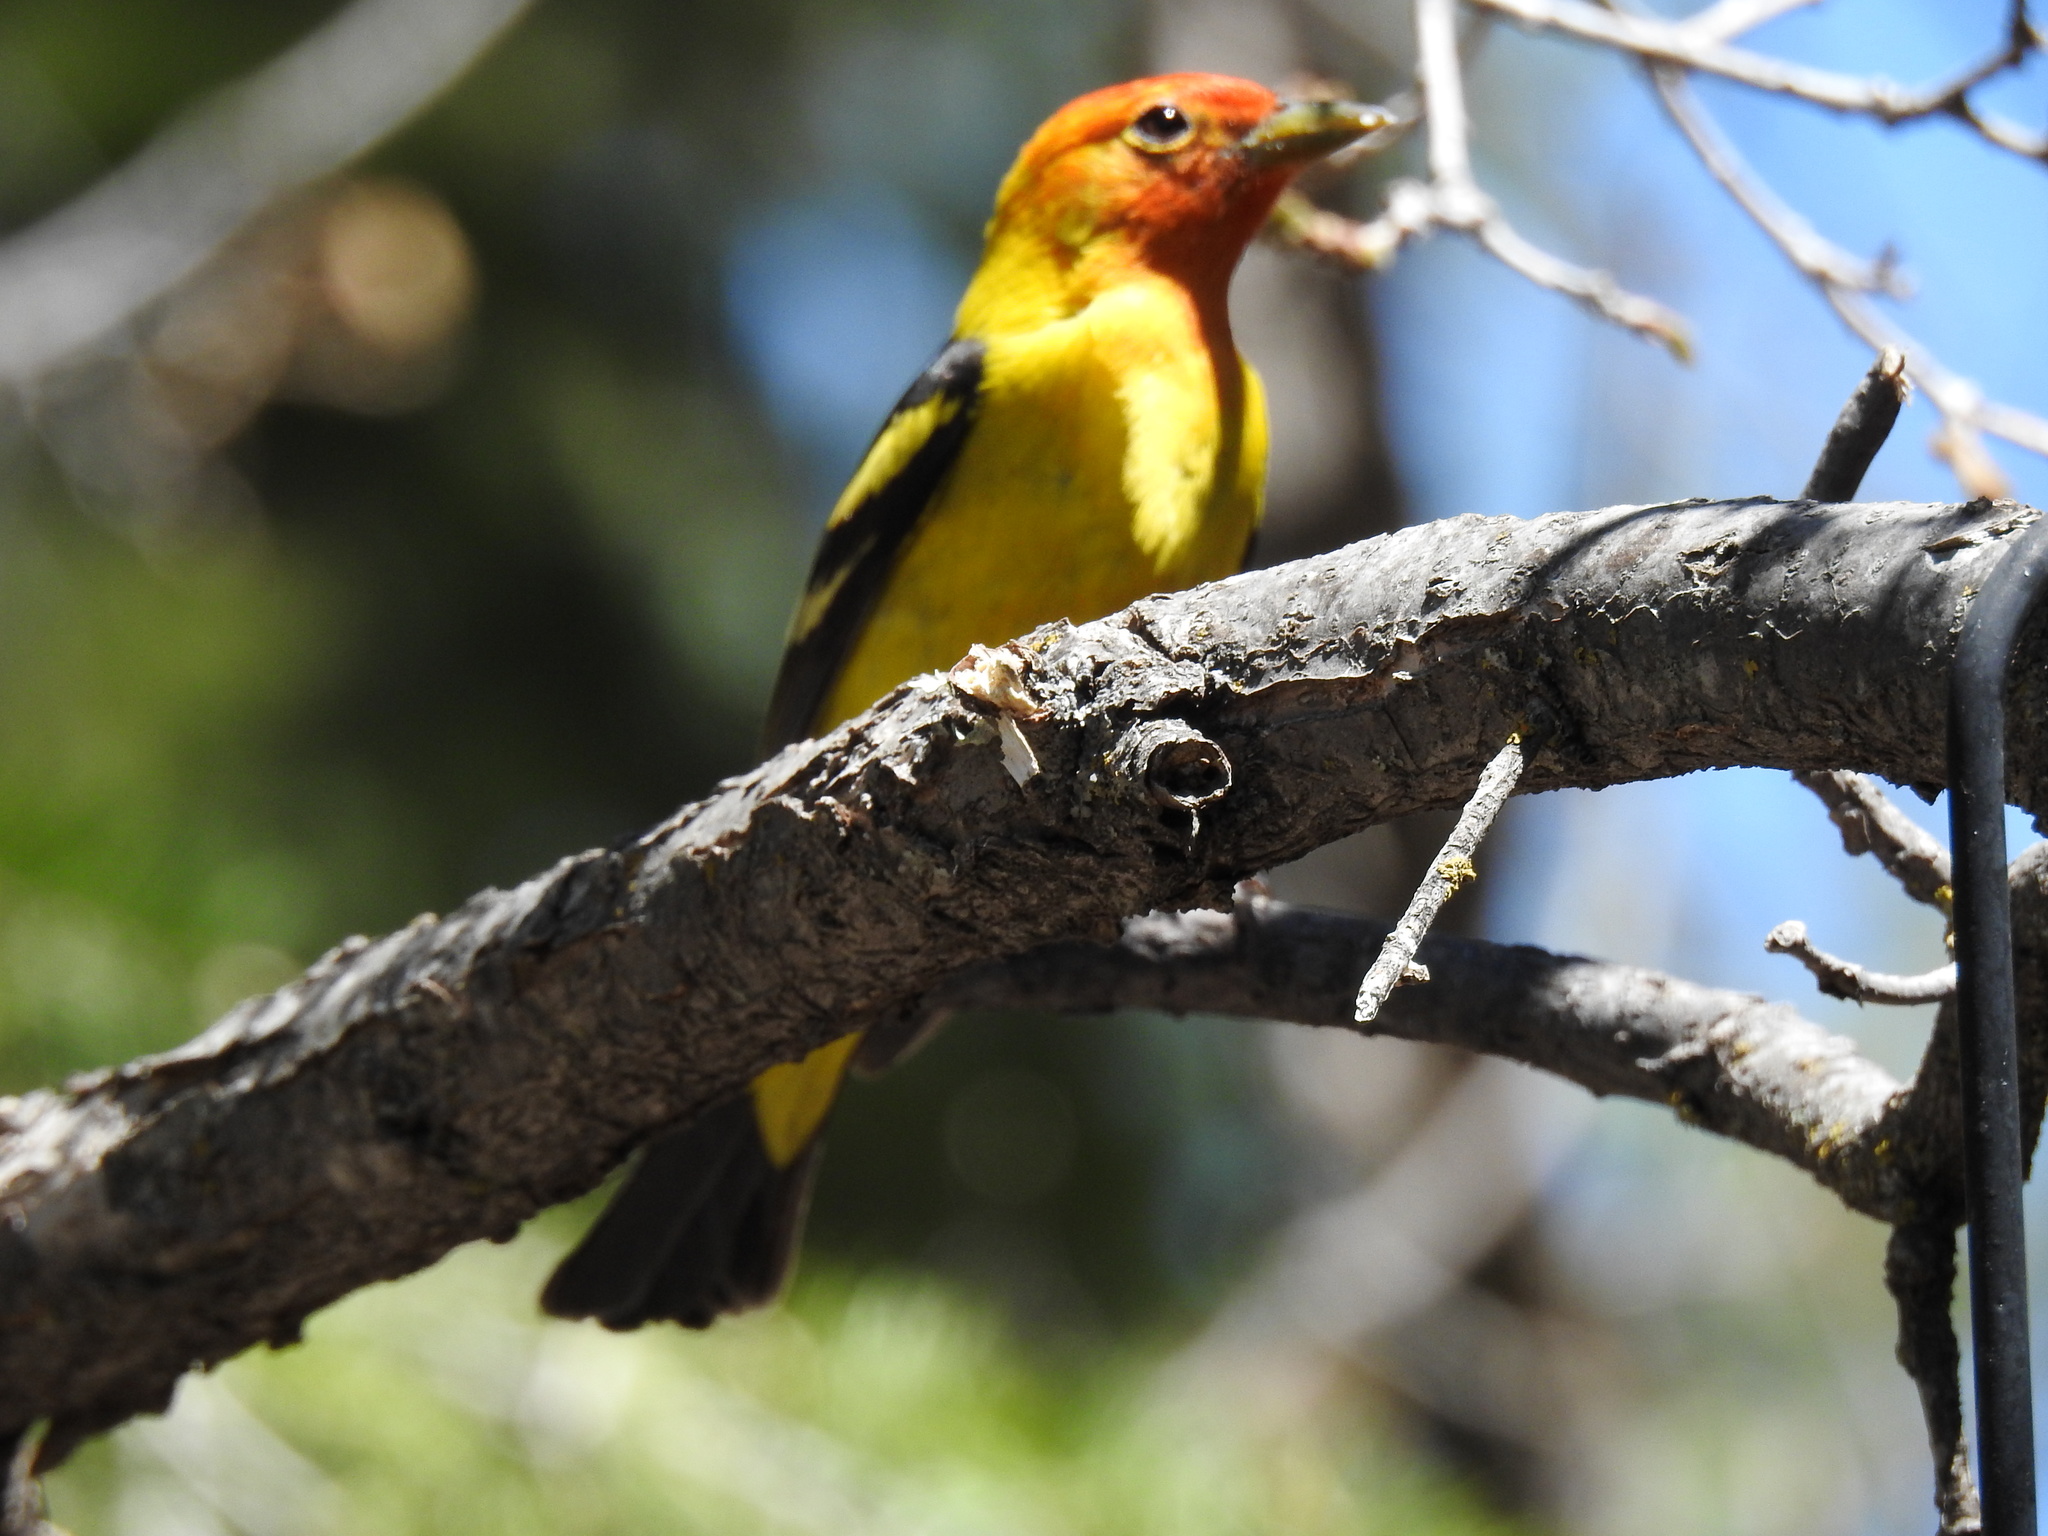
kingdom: Animalia
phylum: Chordata
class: Aves
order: Passeriformes
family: Cardinalidae
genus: Piranga
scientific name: Piranga ludoviciana
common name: Western tanager
